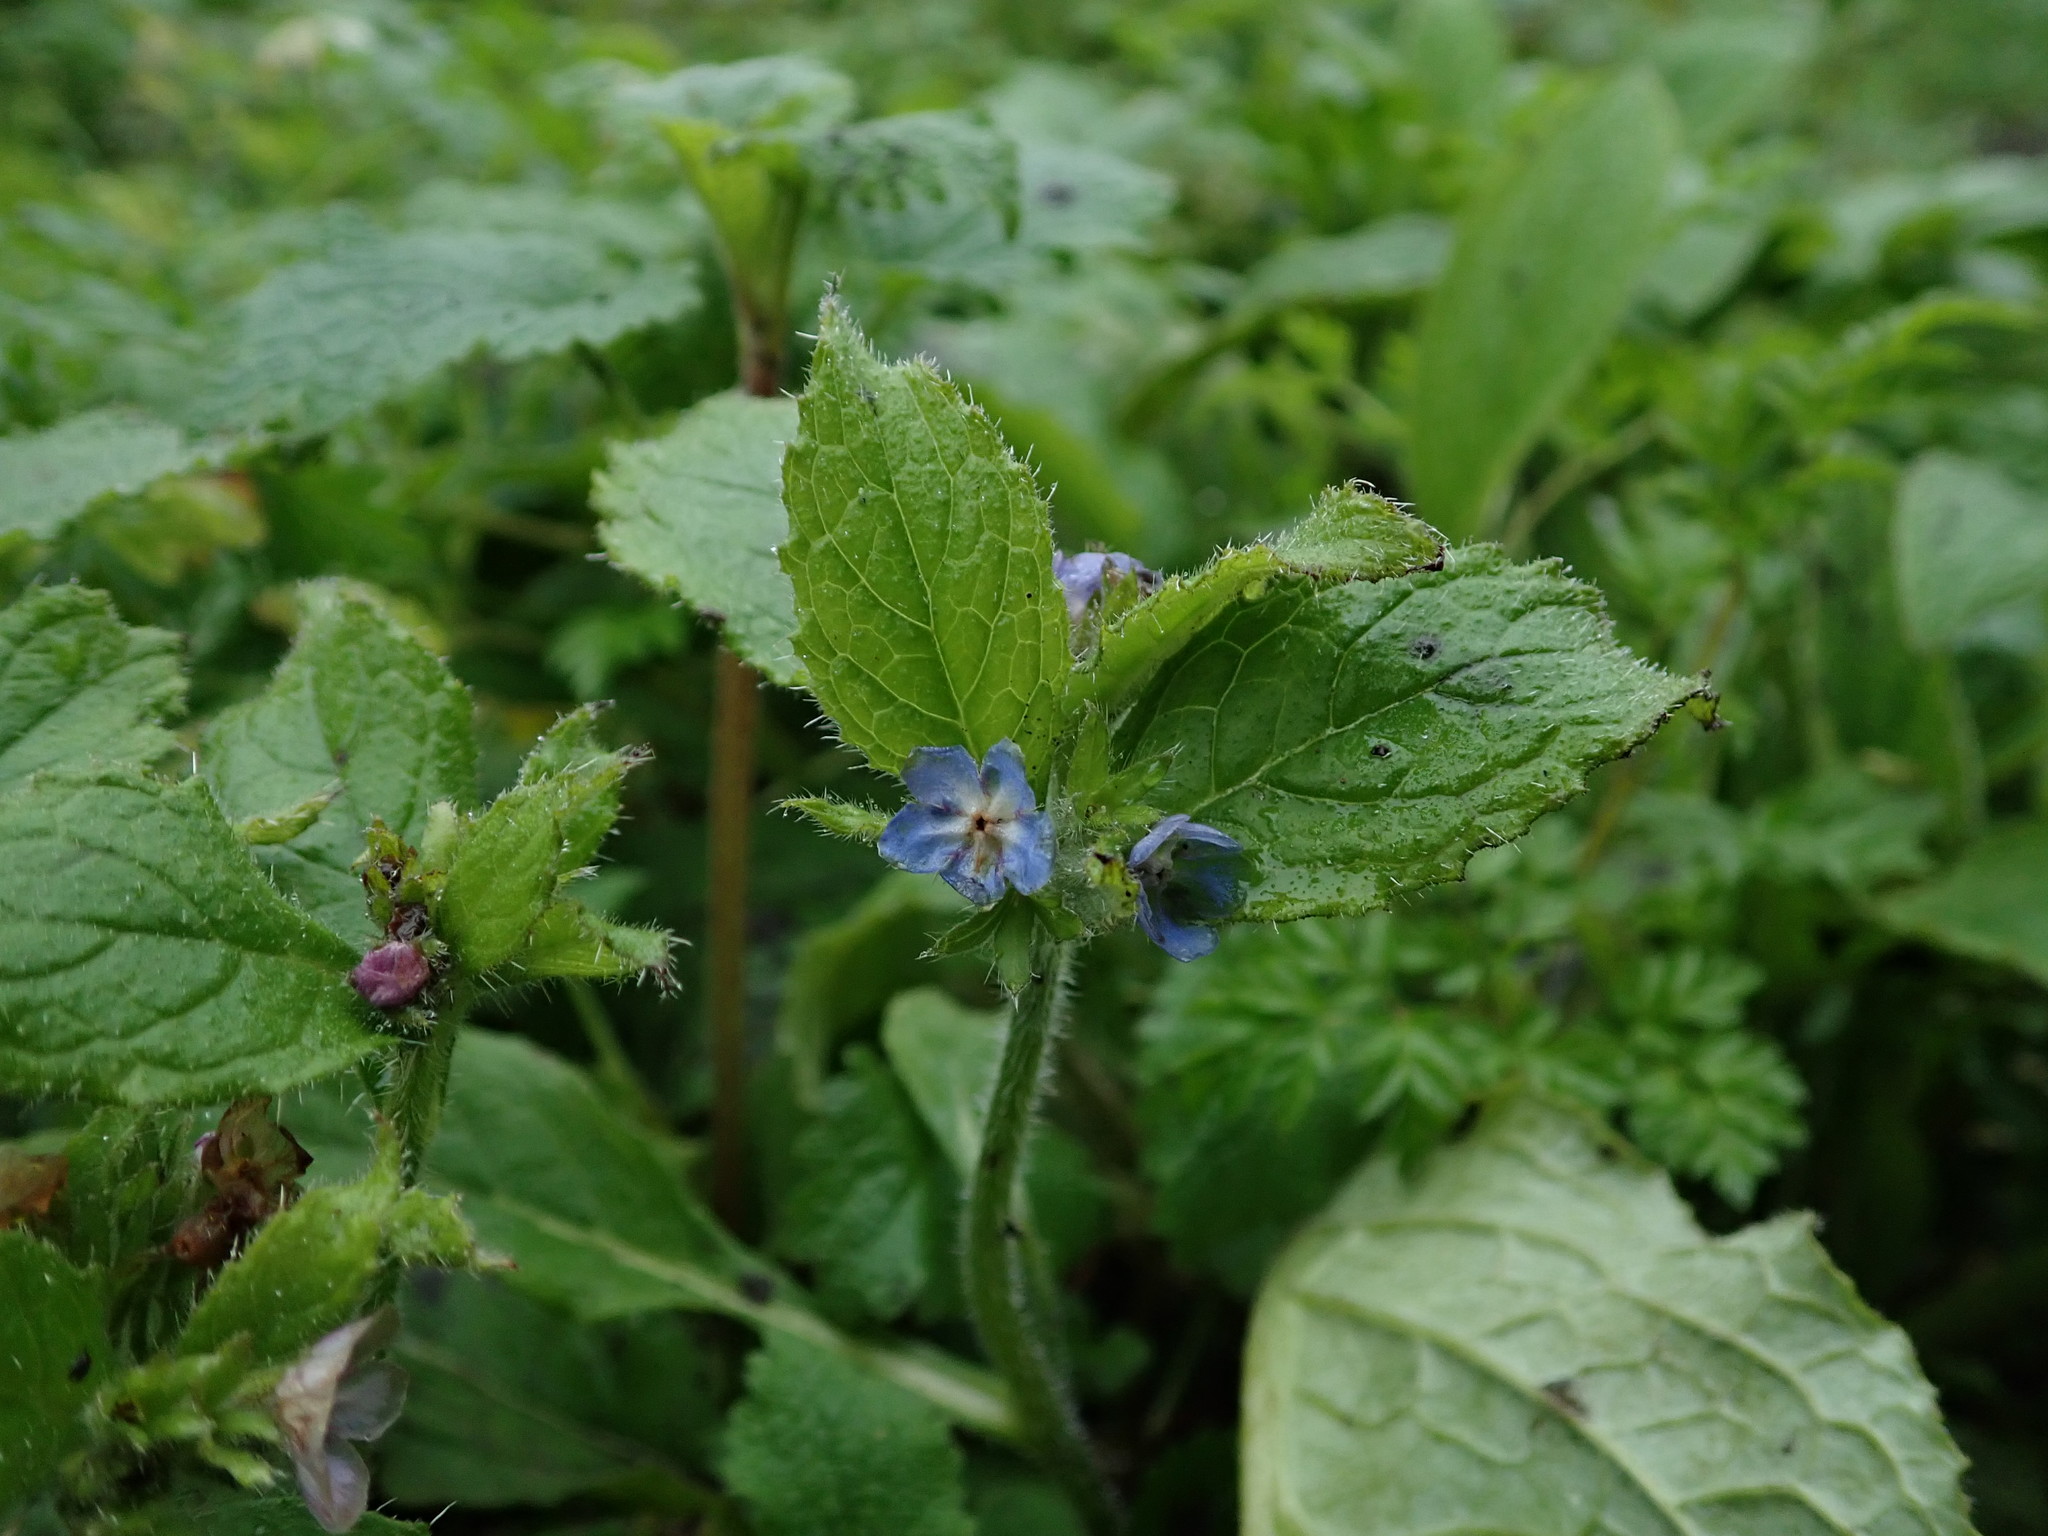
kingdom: Plantae
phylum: Tracheophyta
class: Magnoliopsida
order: Boraginales
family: Boraginaceae
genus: Pentaglottis
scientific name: Pentaglottis sempervirens
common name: Green alkanet
